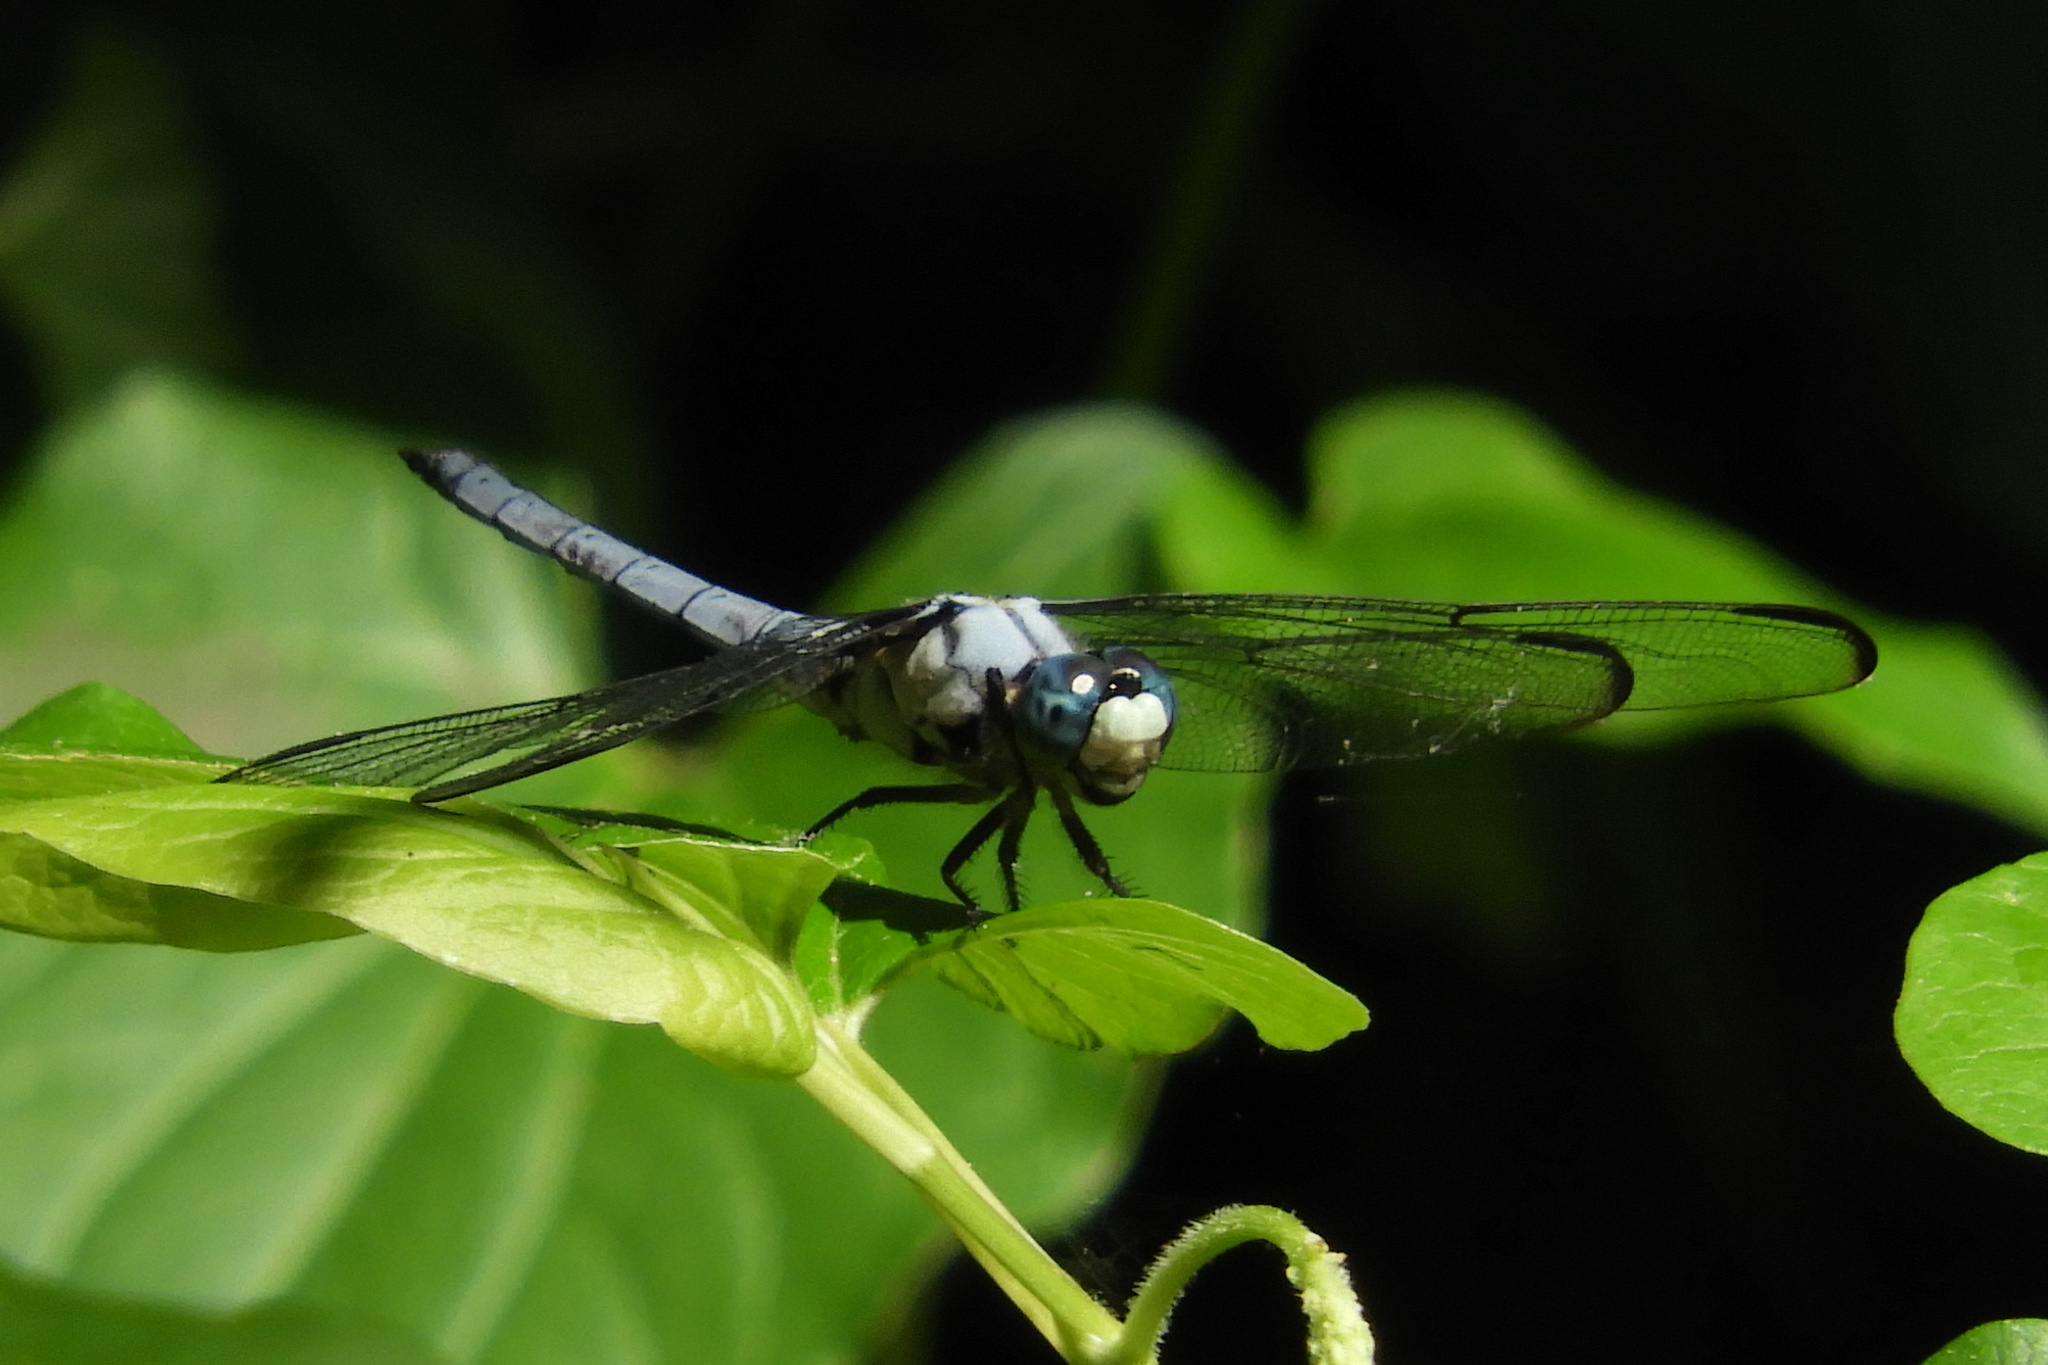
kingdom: Animalia
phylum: Arthropoda
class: Insecta
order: Odonata
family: Libellulidae
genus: Libellula
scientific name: Libellula vibrans
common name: Great blue skimmer
